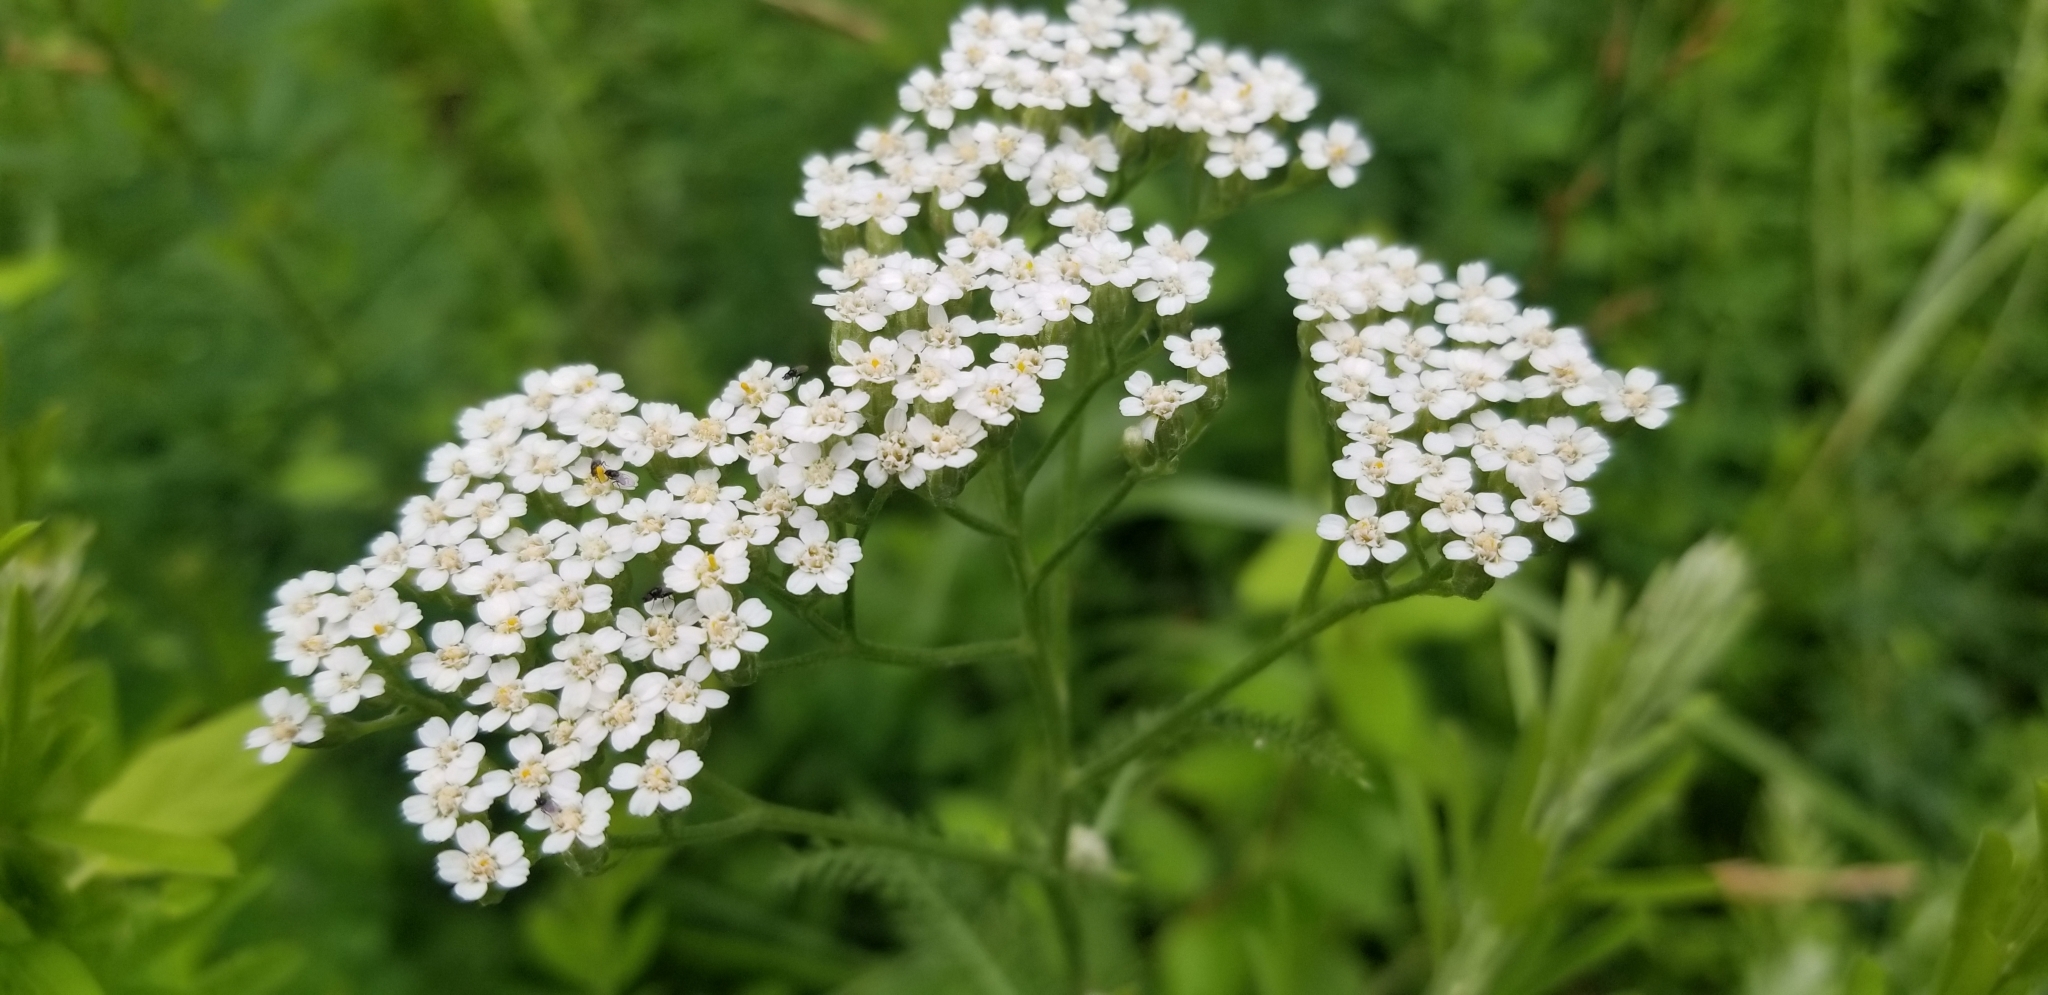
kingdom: Plantae
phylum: Tracheophyta
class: Magnoliopsida
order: Asterales
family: Asteraceae
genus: Achillea
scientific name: Achillea millefolium
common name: Yarrow
